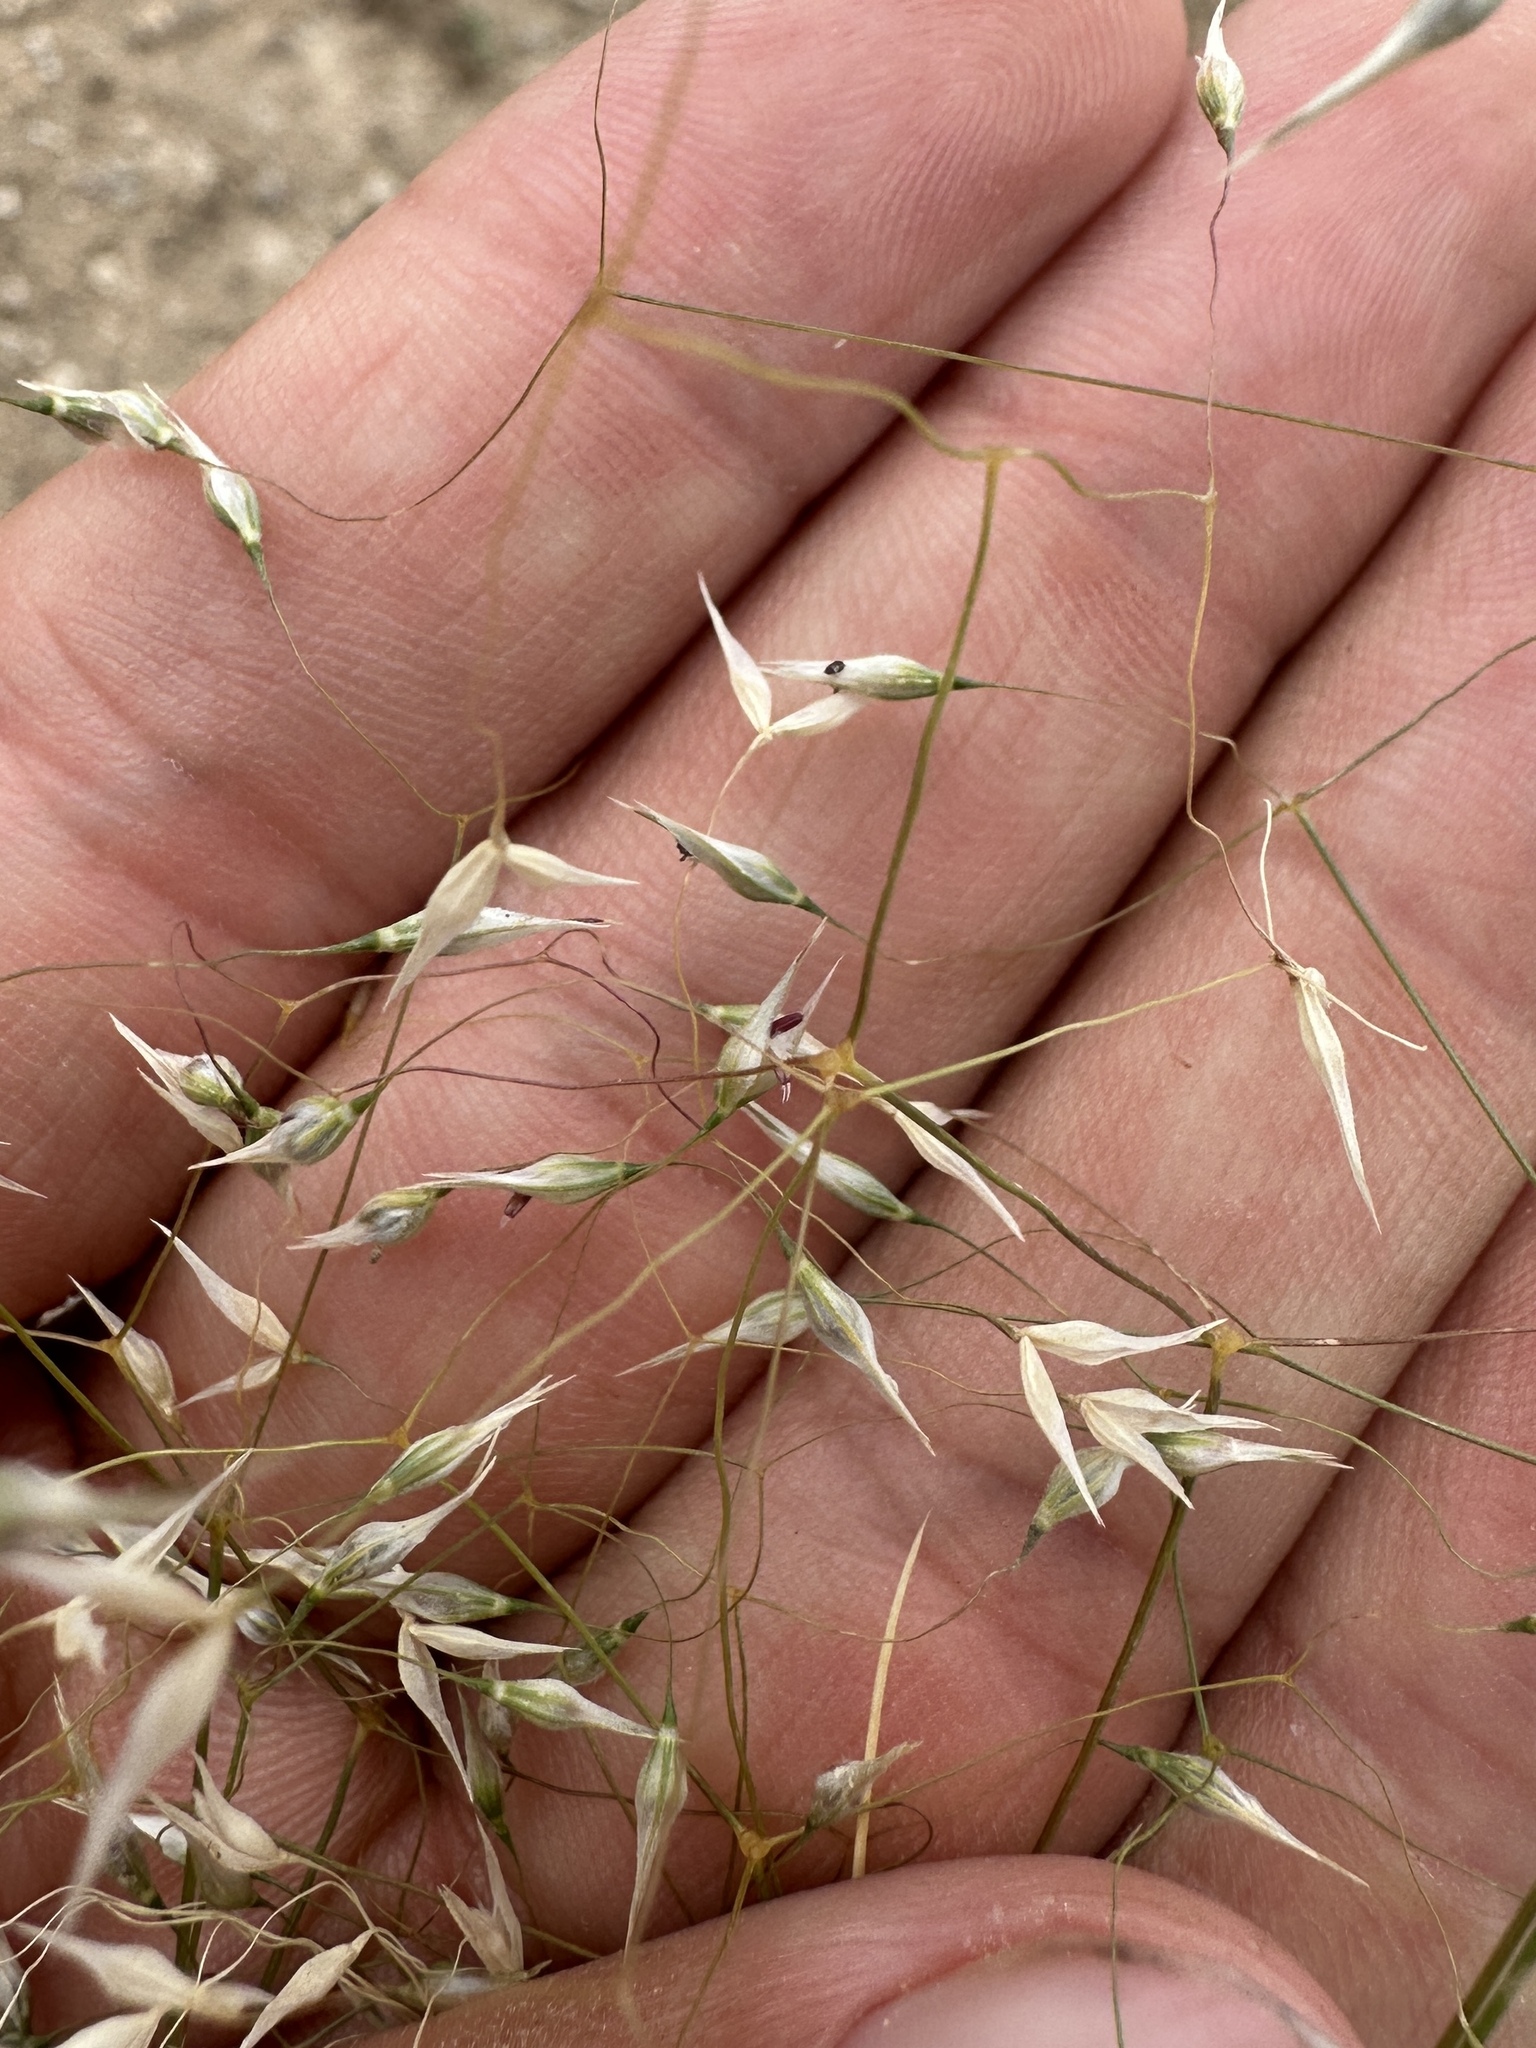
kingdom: Plantae
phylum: Tracheophyta
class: Liliopsida
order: Poales
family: Poaceae
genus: Eriocoma
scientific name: Eriocoma hymenoides
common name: Indian mountain ricegrass
